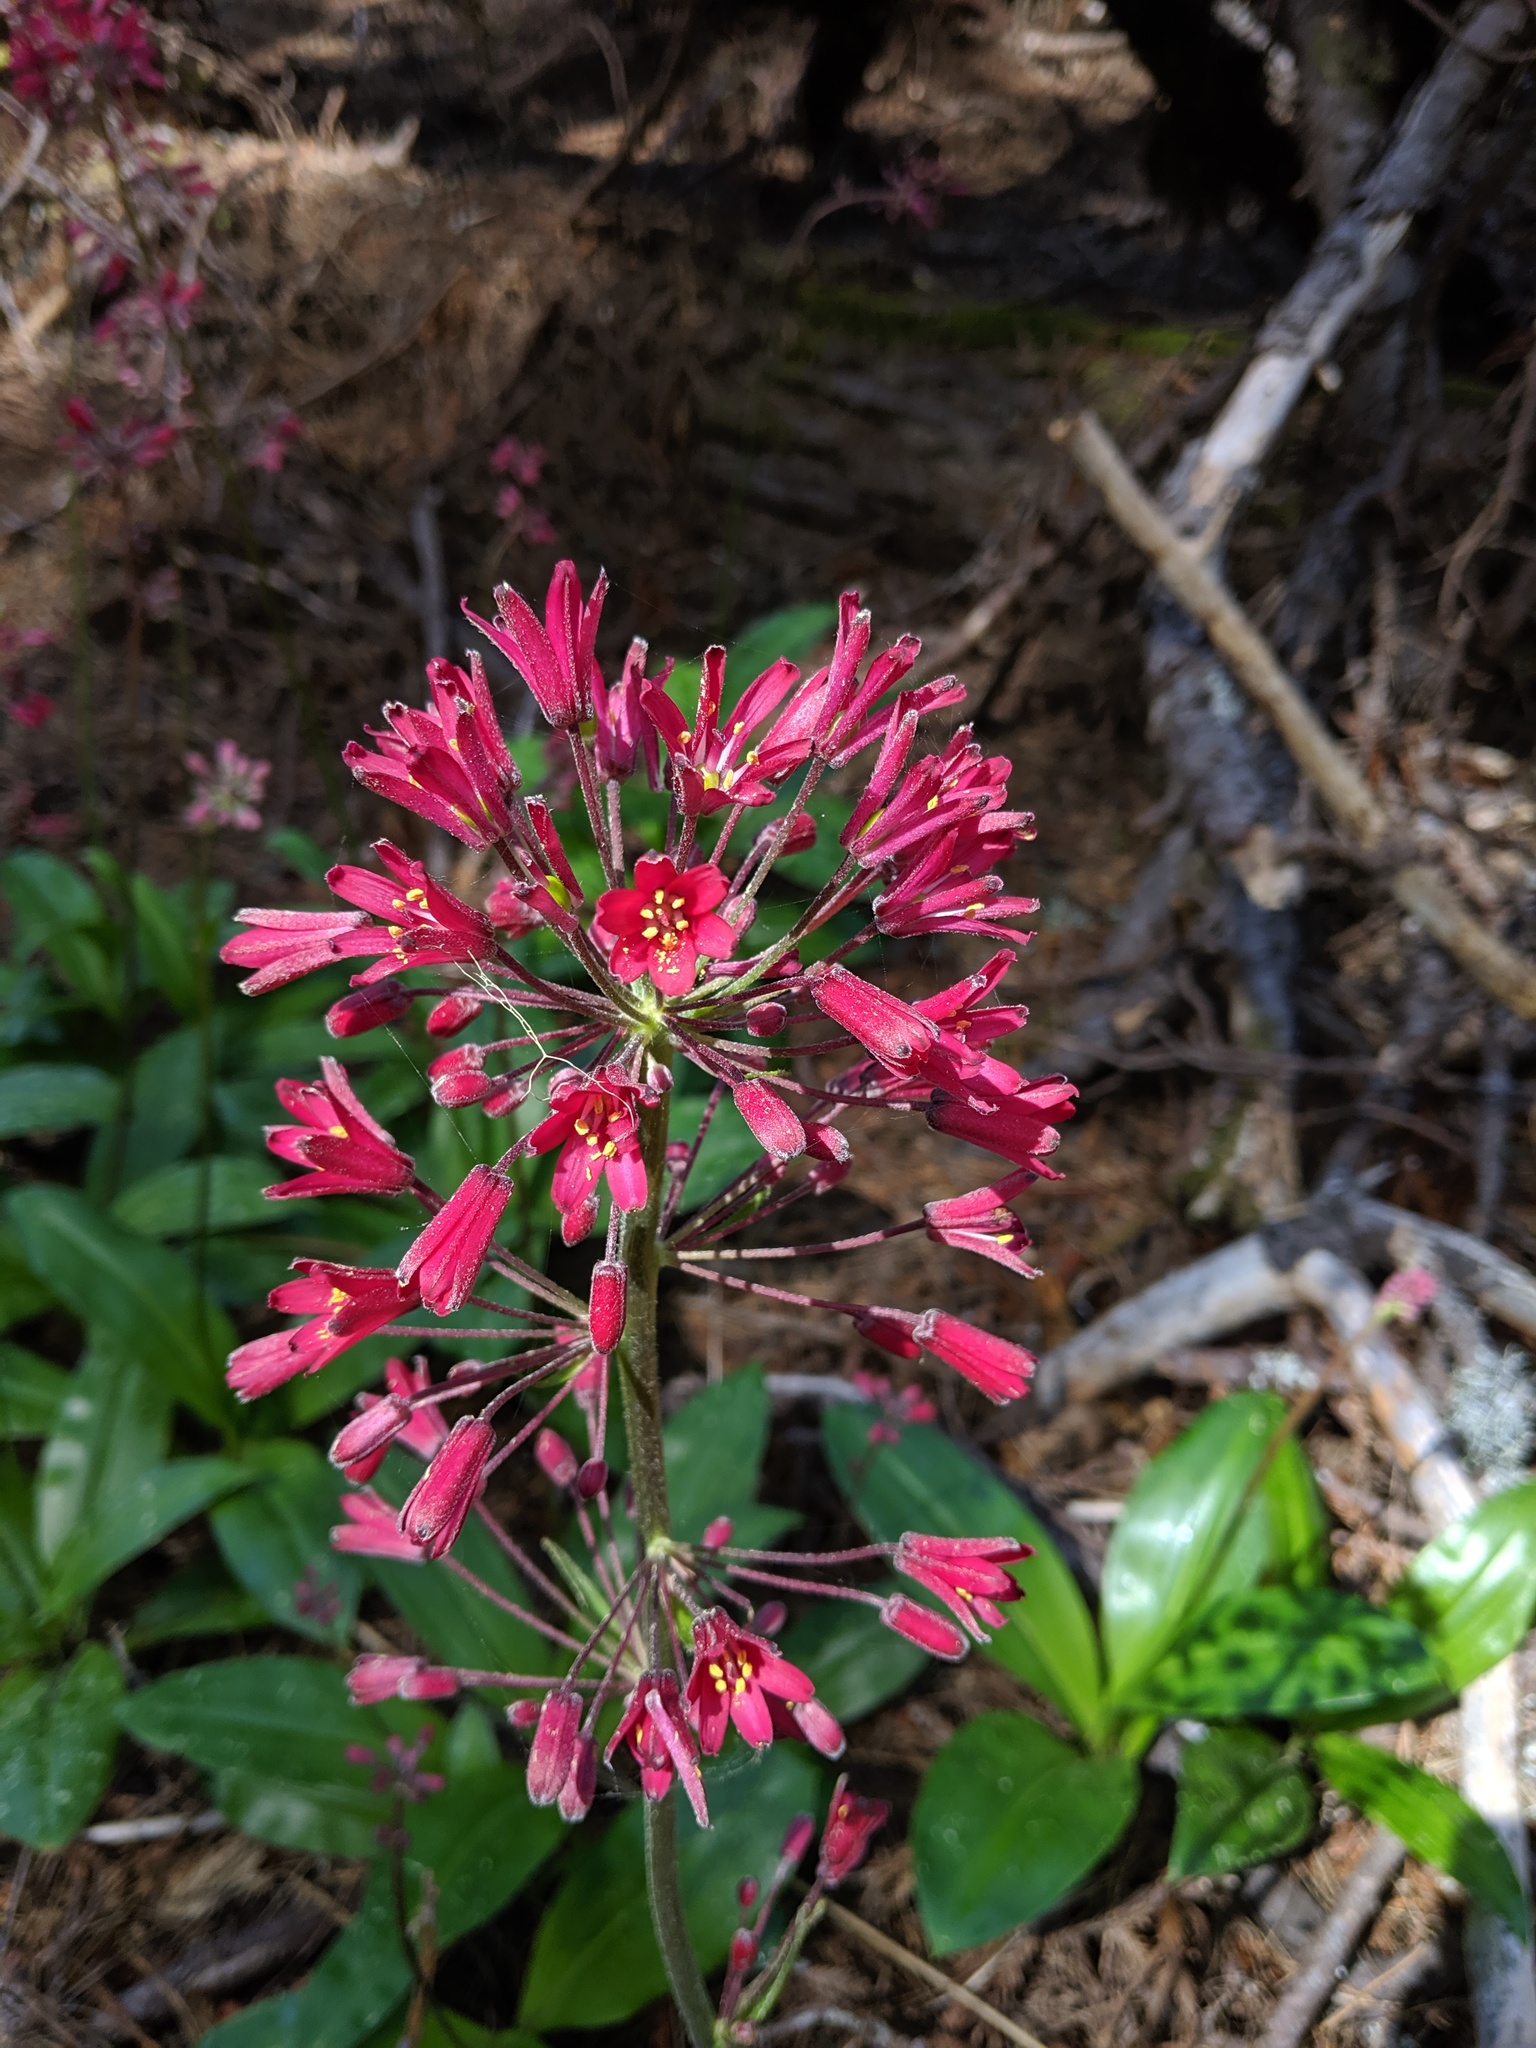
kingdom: Plantae
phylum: Tracheophyta
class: Liliopsida
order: Liliales
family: Liliaceae
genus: Clintonia
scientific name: Clintonia andrewsiana
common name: Red clintonia
